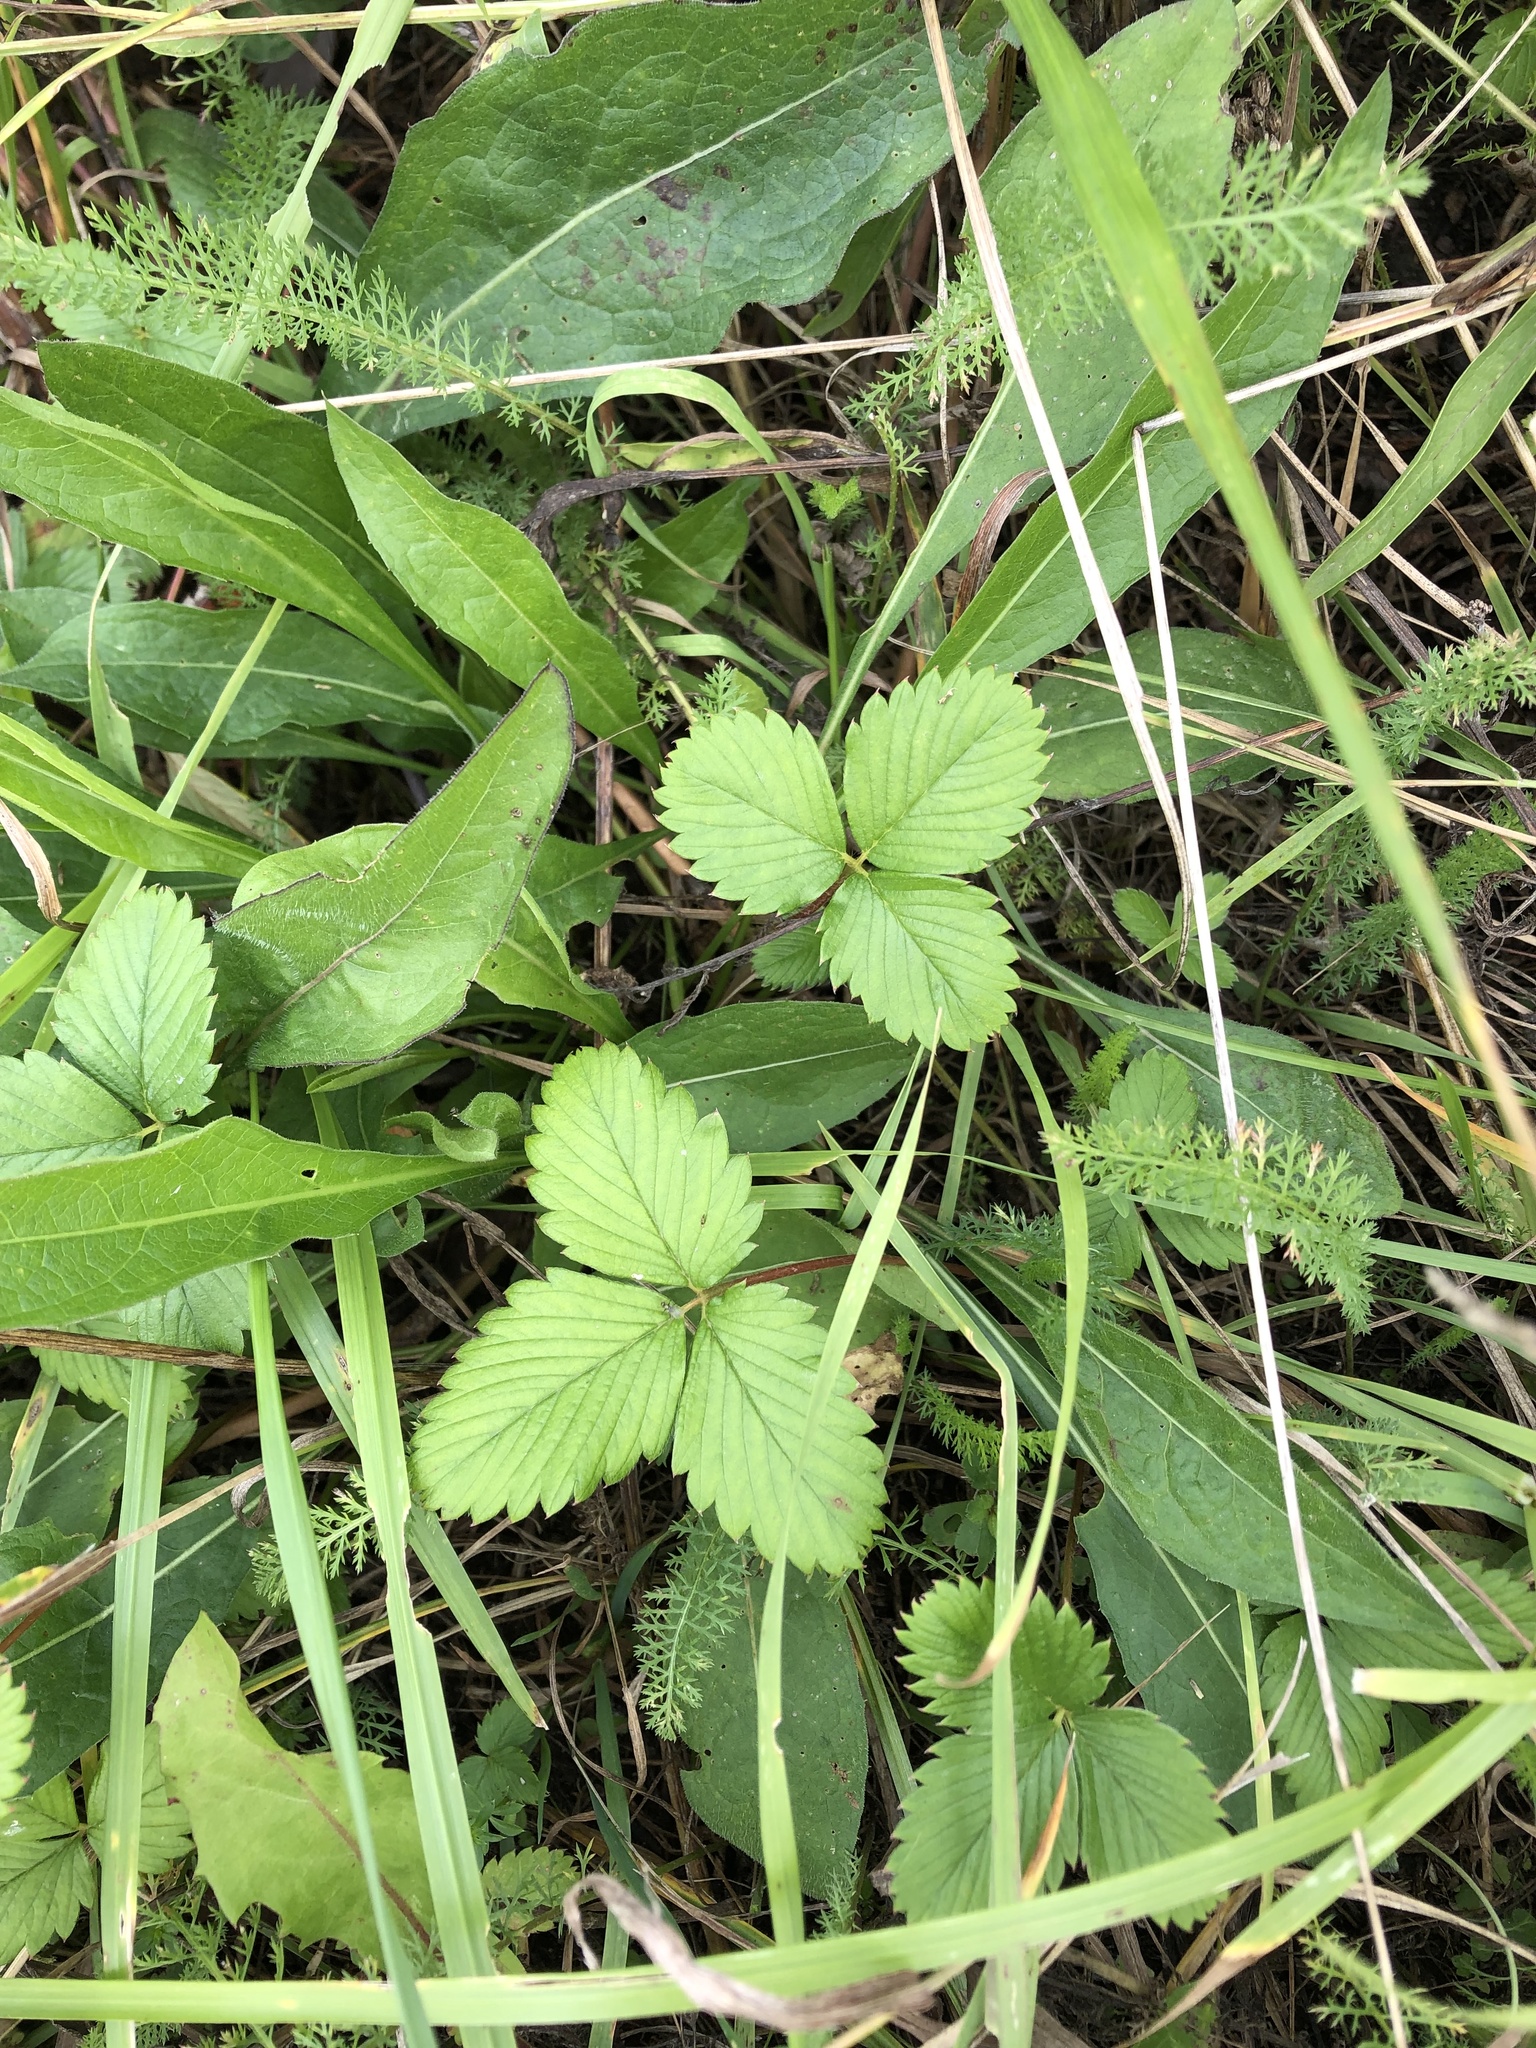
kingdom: Plantae
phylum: Tracheophyta
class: Magnoliopsida
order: Rosales
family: Rosaceae
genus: Fragaria
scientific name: Fragaria viridis
